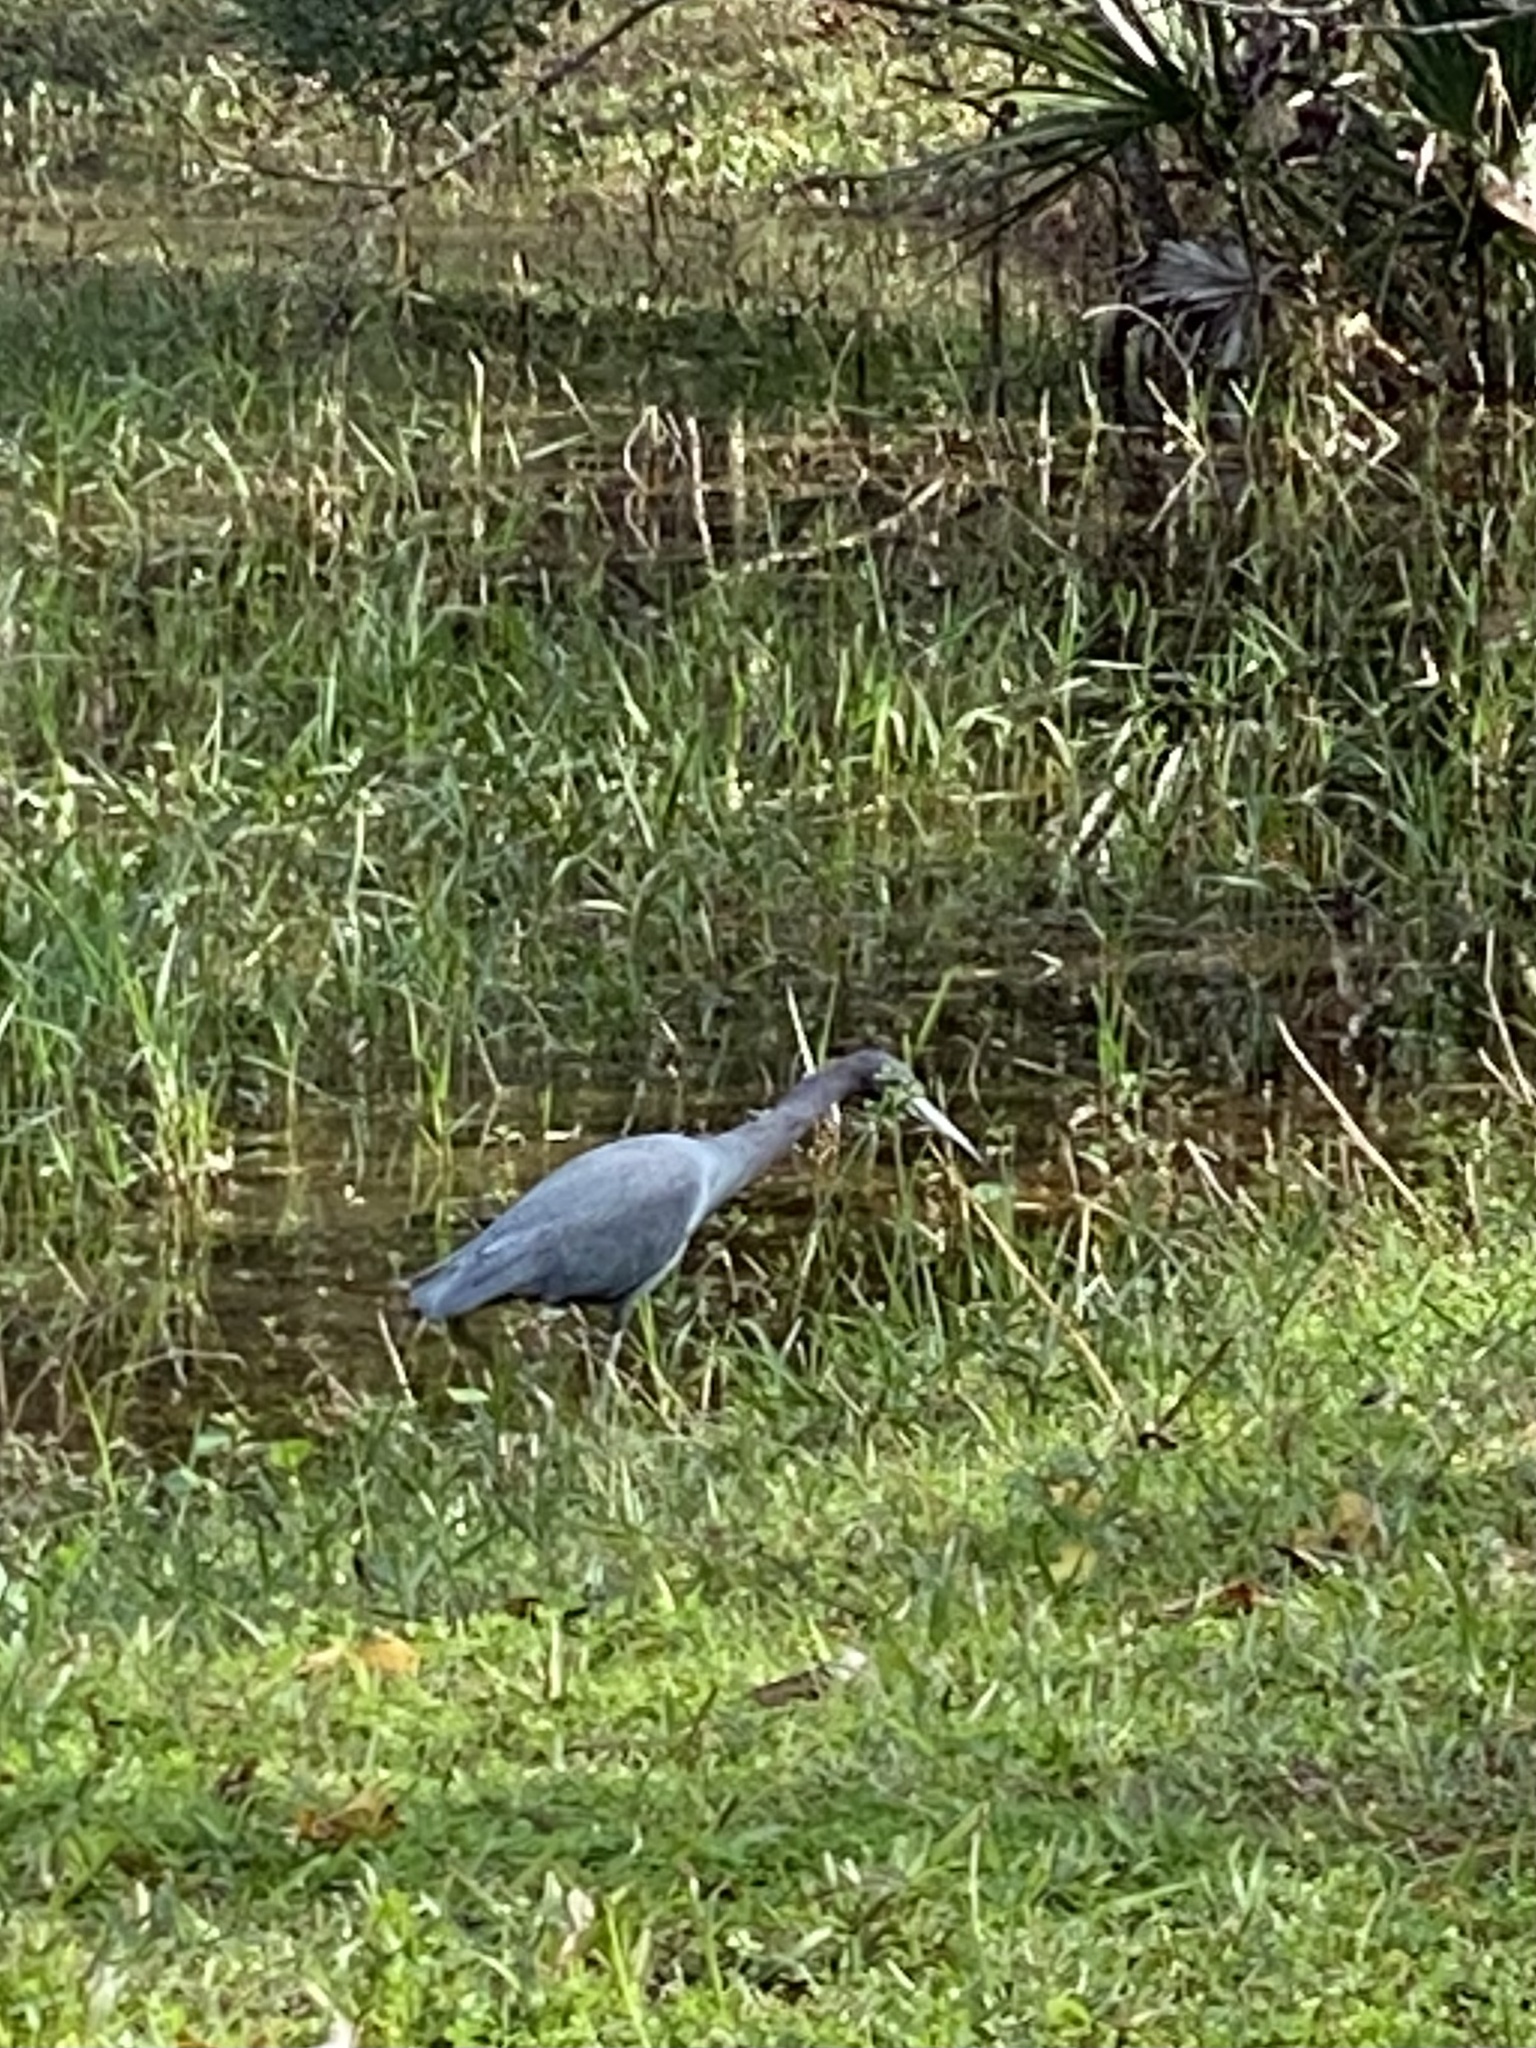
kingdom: Animalia
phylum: Chordata
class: Aves
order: Pelecaniformes
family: Ardeidae
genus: Egretta
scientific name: Egretta caerulea
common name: Little blue heron
